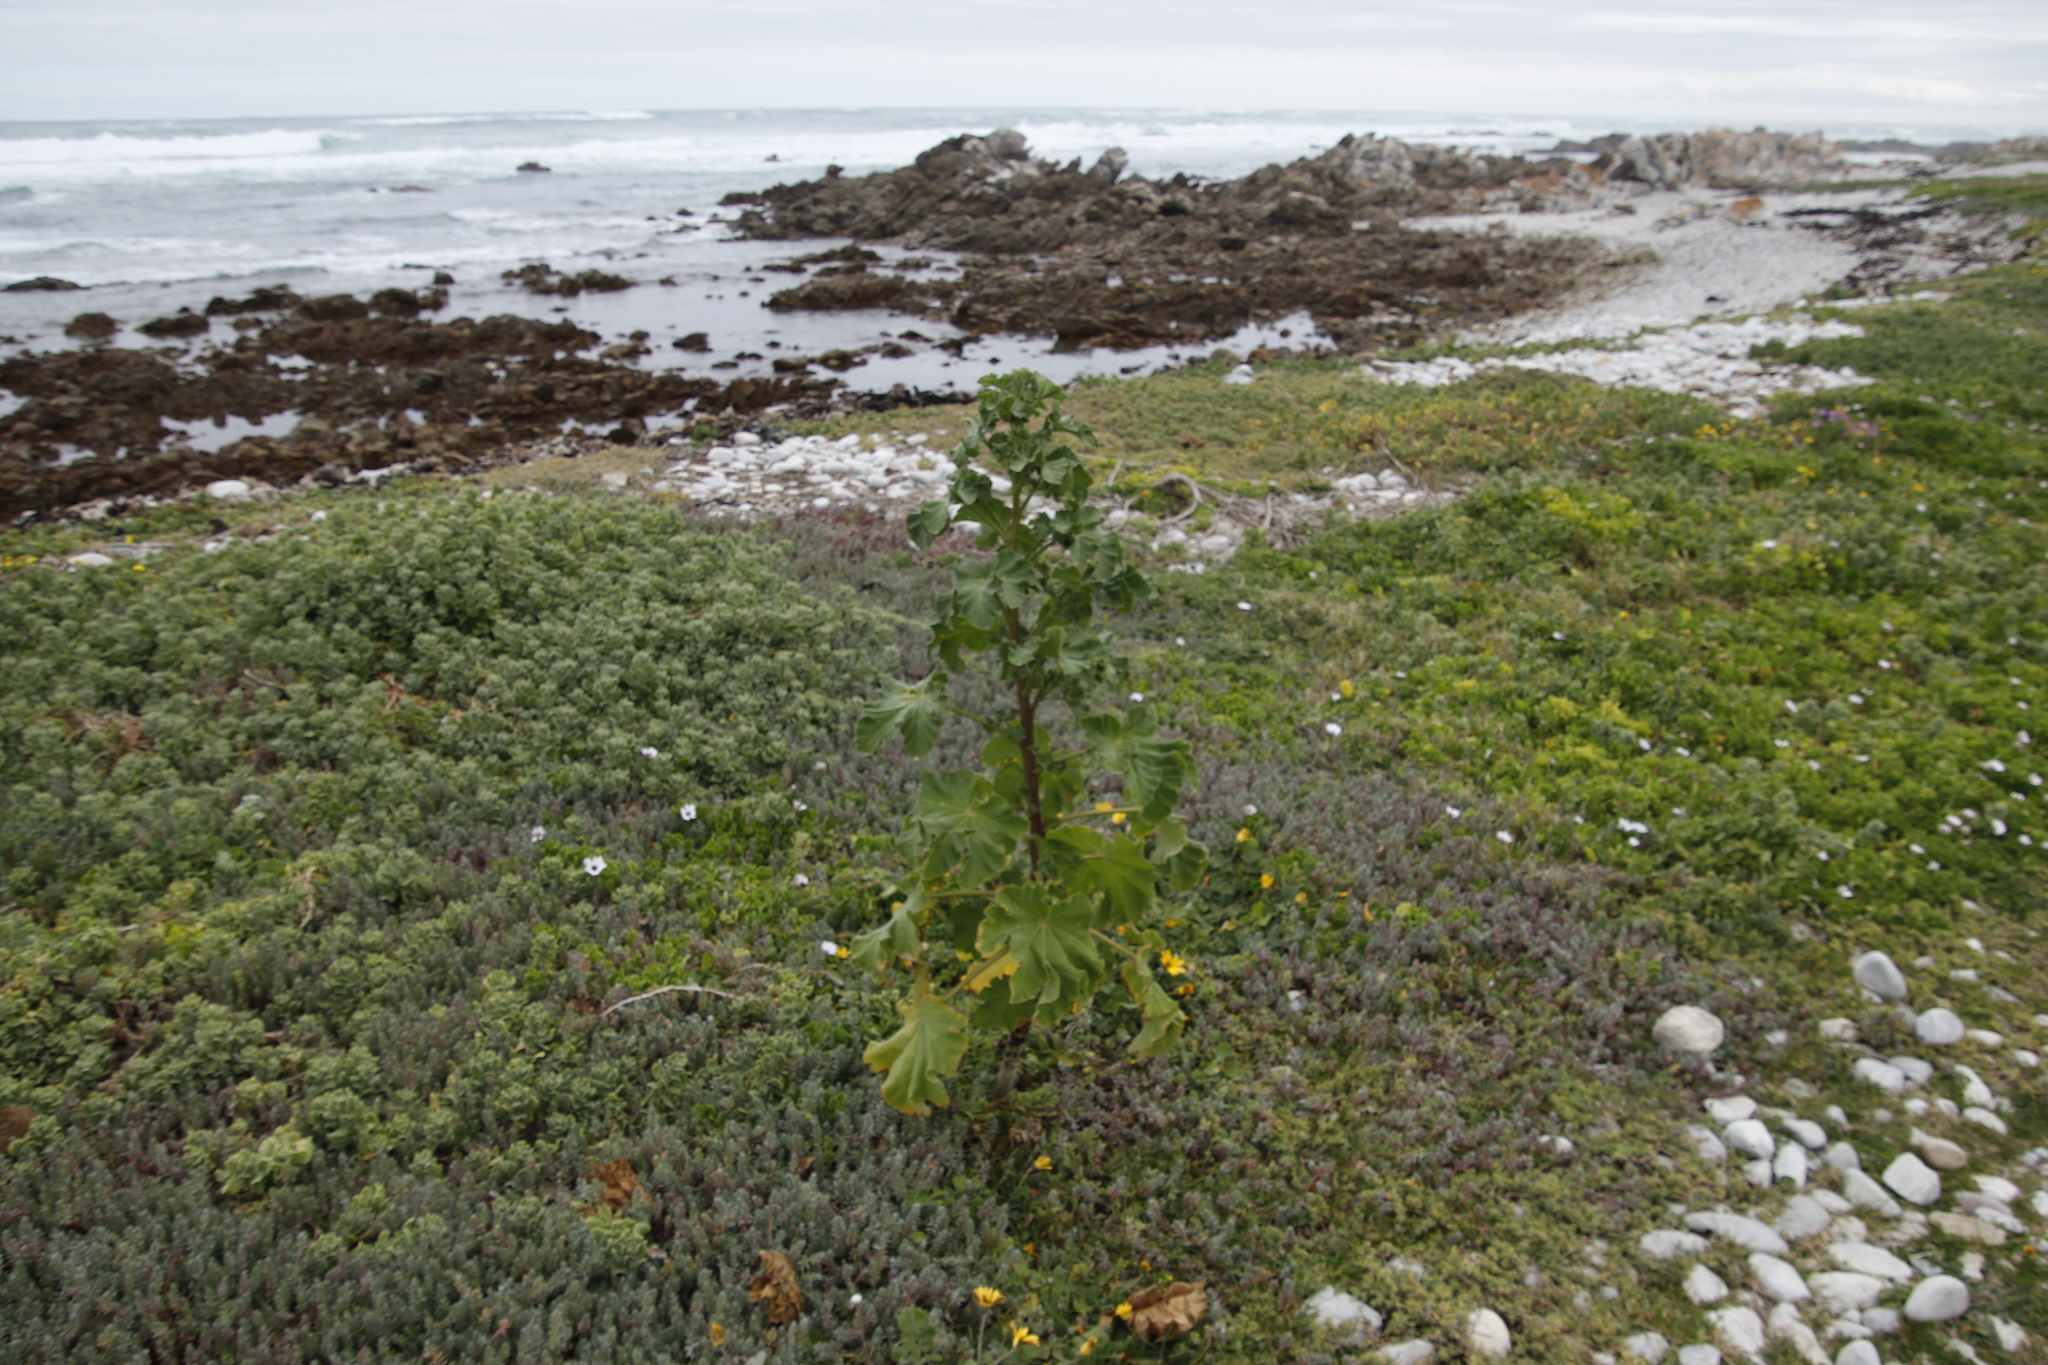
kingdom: Plantae
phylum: Tracheophyta
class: Magnoliopsida
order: Malvales
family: Malvaceae
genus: Malva
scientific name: Malva arborea
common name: Tree mallow
